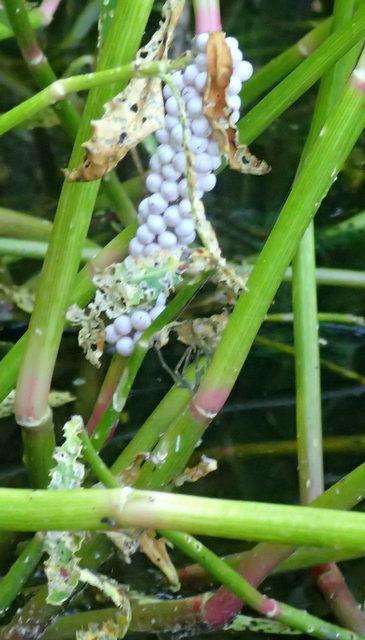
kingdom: Animalia
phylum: Mollusca
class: Gastropoda
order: Architaenioglossa
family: Ampullariidae
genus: Pomacea
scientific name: Pomacea paludosa
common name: Florida applesnail
